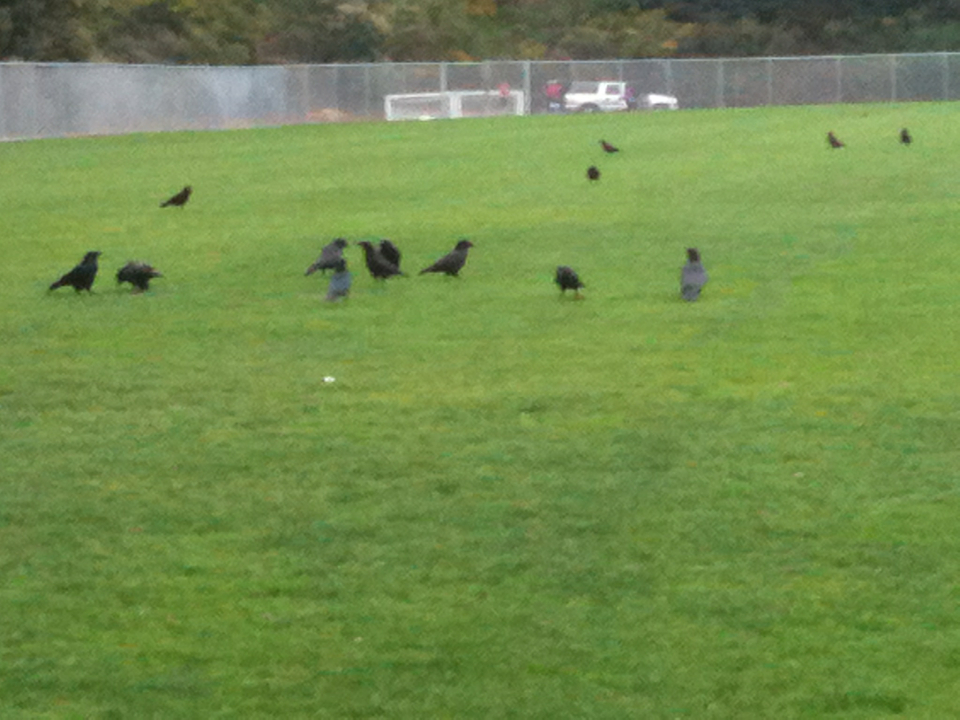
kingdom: Animalia
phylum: Chordata
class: Aves
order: Passeriformes
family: Corvidae
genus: Corvus
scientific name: Corvus brachyrhynchos
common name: American crow
